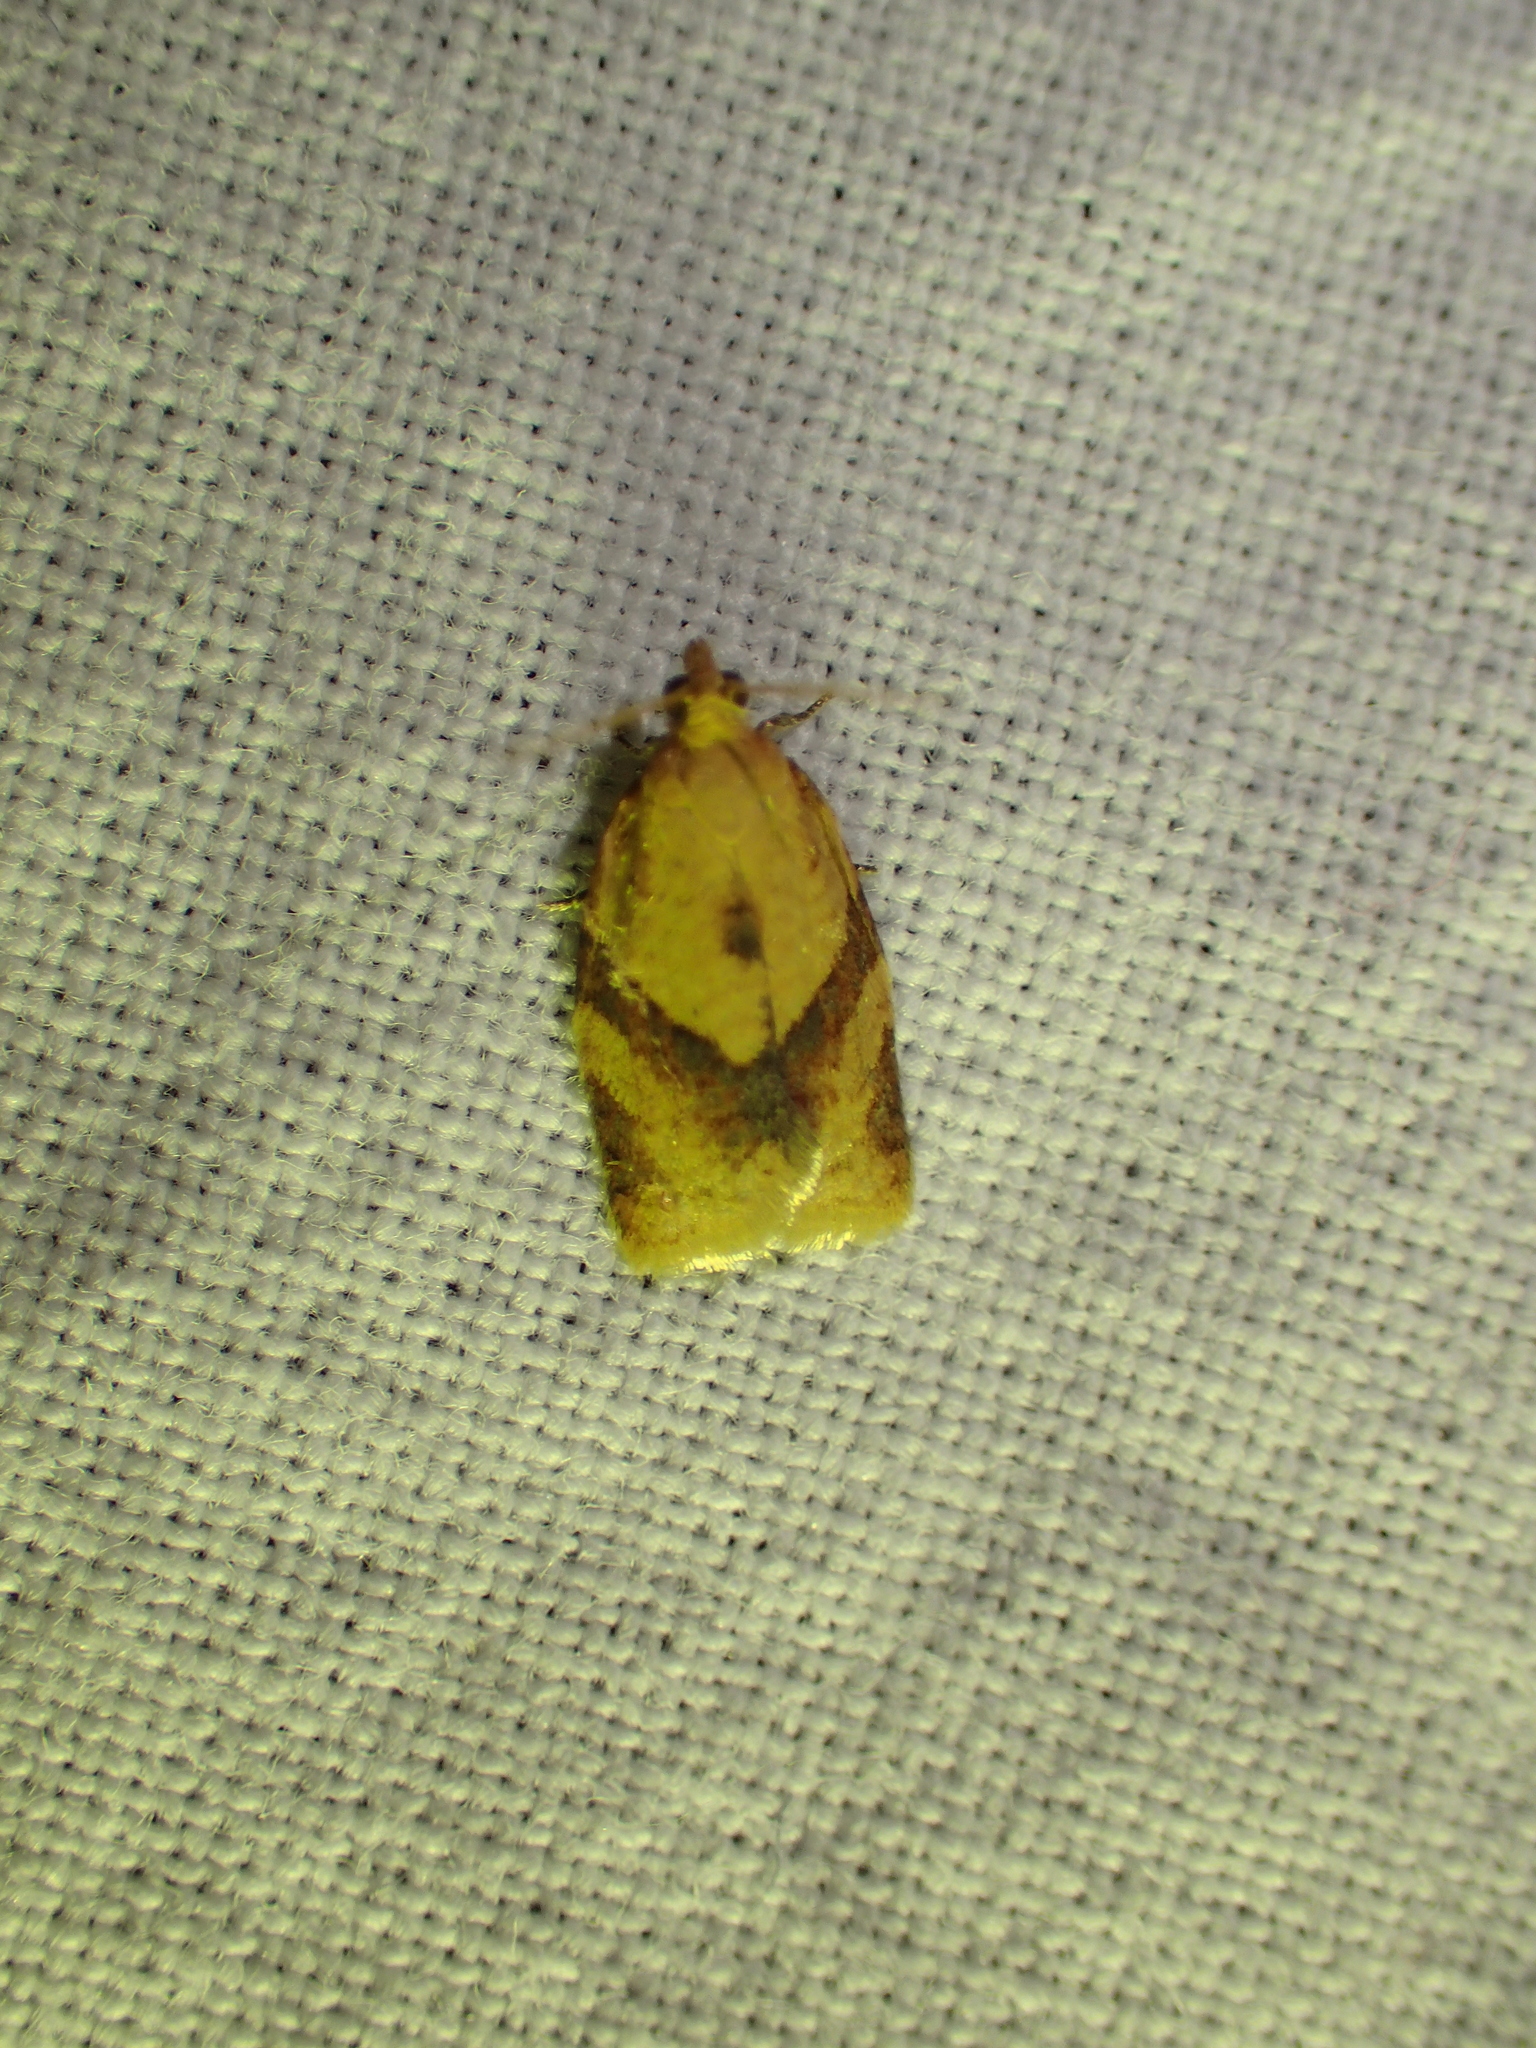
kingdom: Animalia
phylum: Arthropoda
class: Insecta
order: Lepidoptera
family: Tortricidae
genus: Clepsis
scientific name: Clepsis consimilana
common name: Privet tortrix
